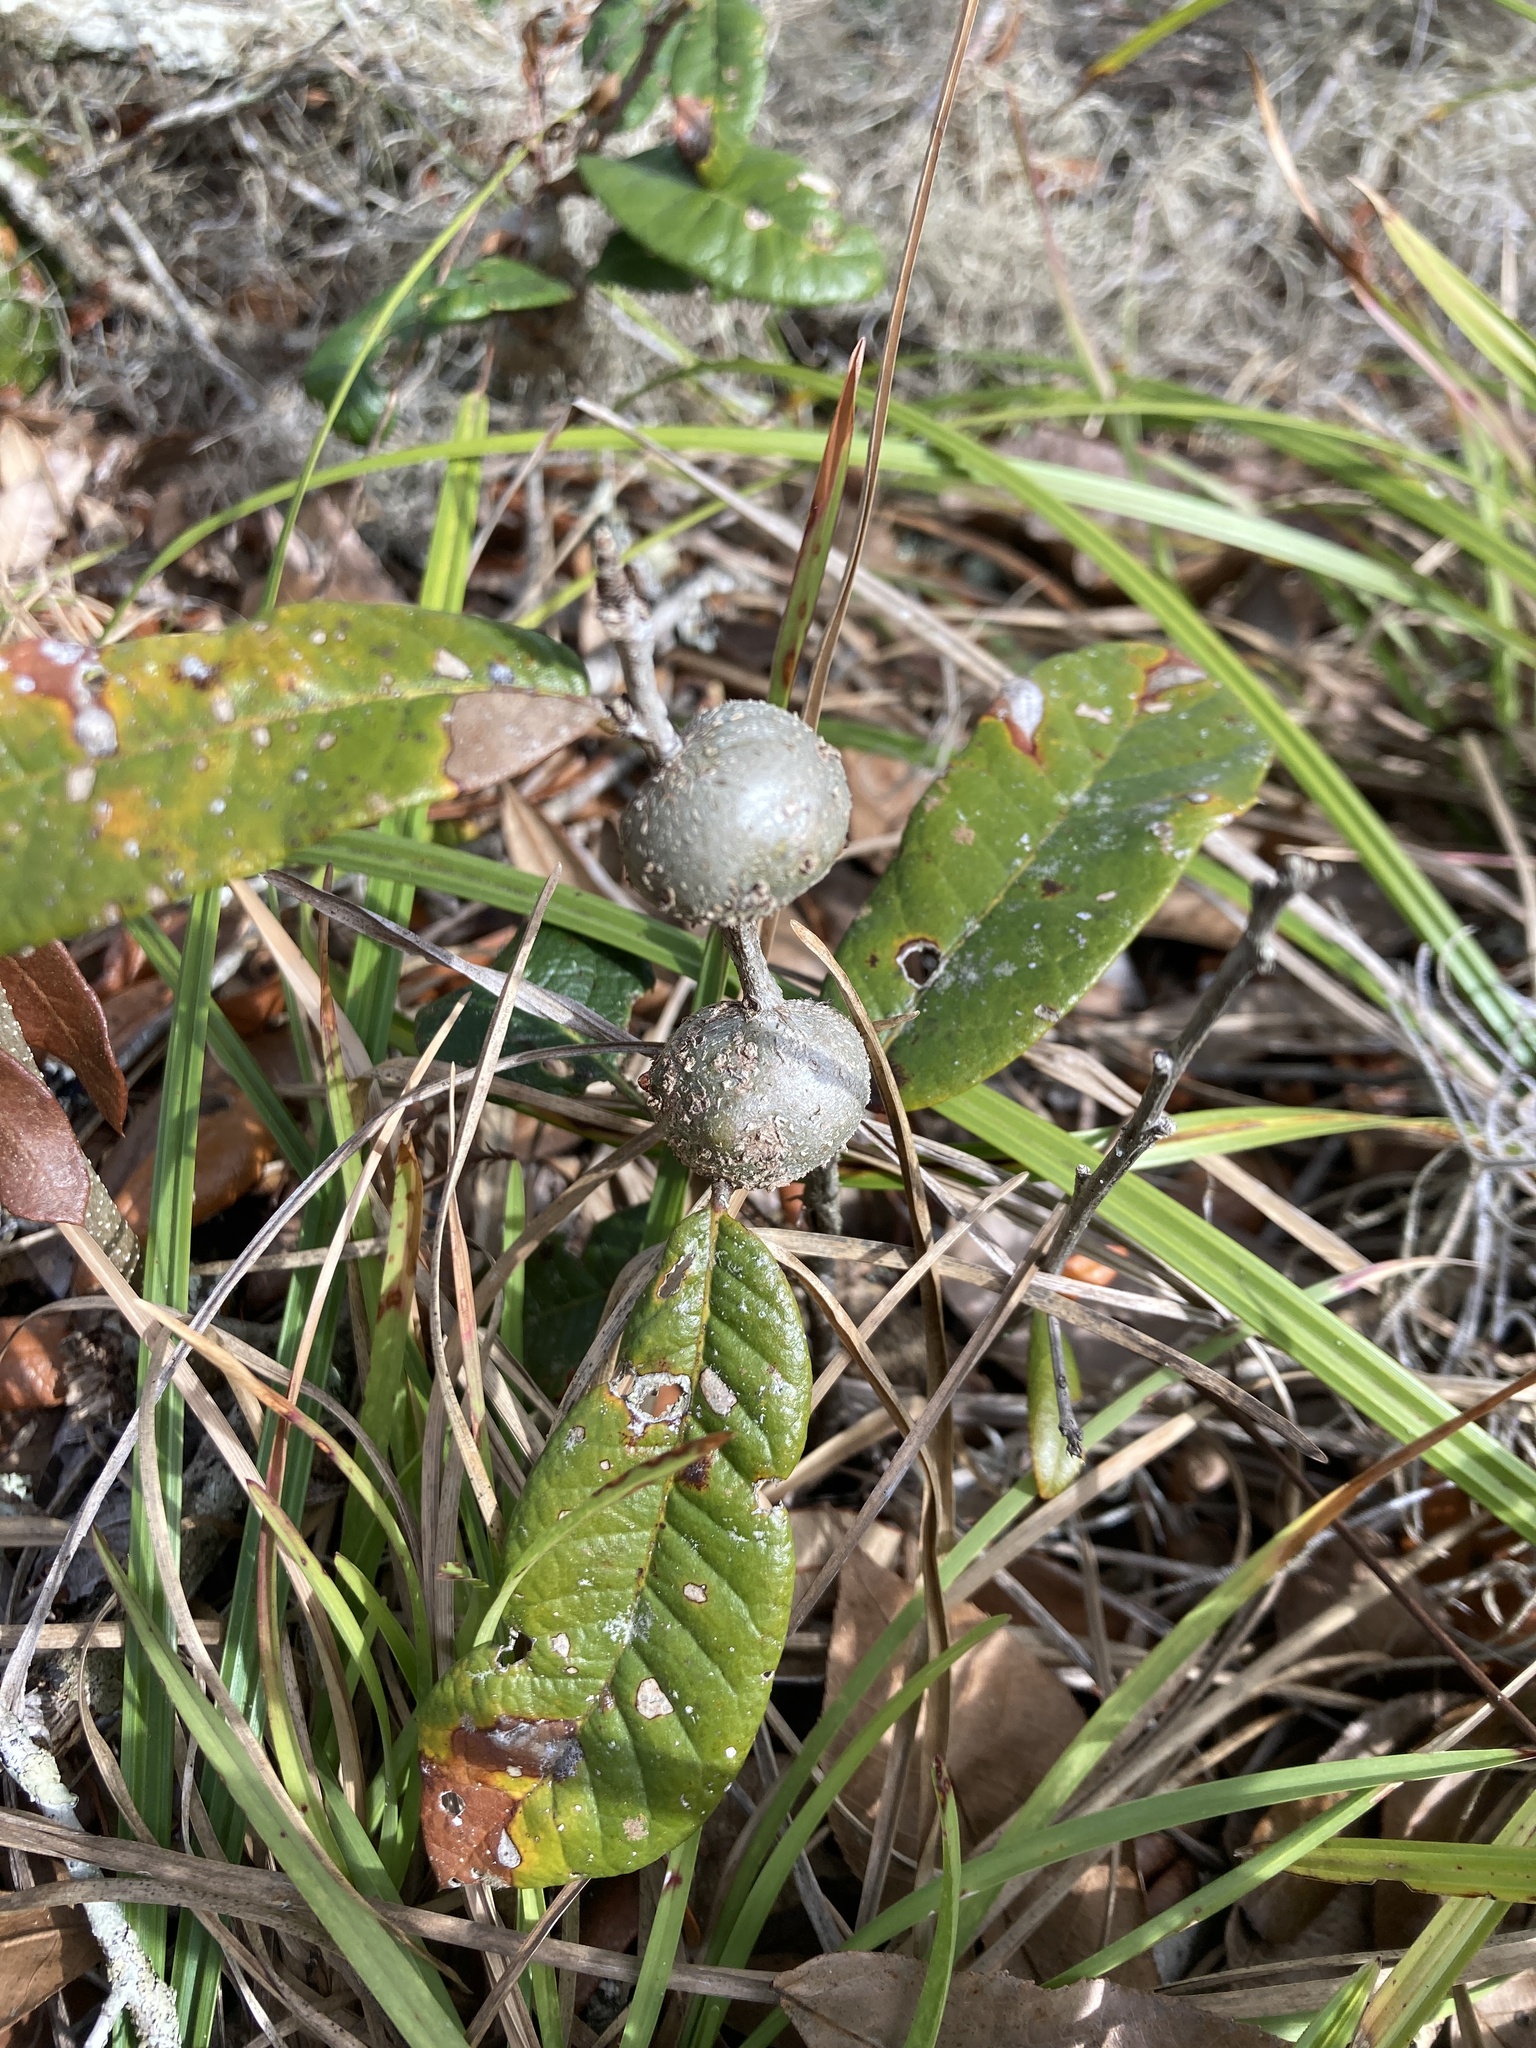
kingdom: Animalia
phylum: Arthropoda
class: Insecta
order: Hymenoptera
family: Cynipidae
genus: Callirhytis
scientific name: Callirhytis
